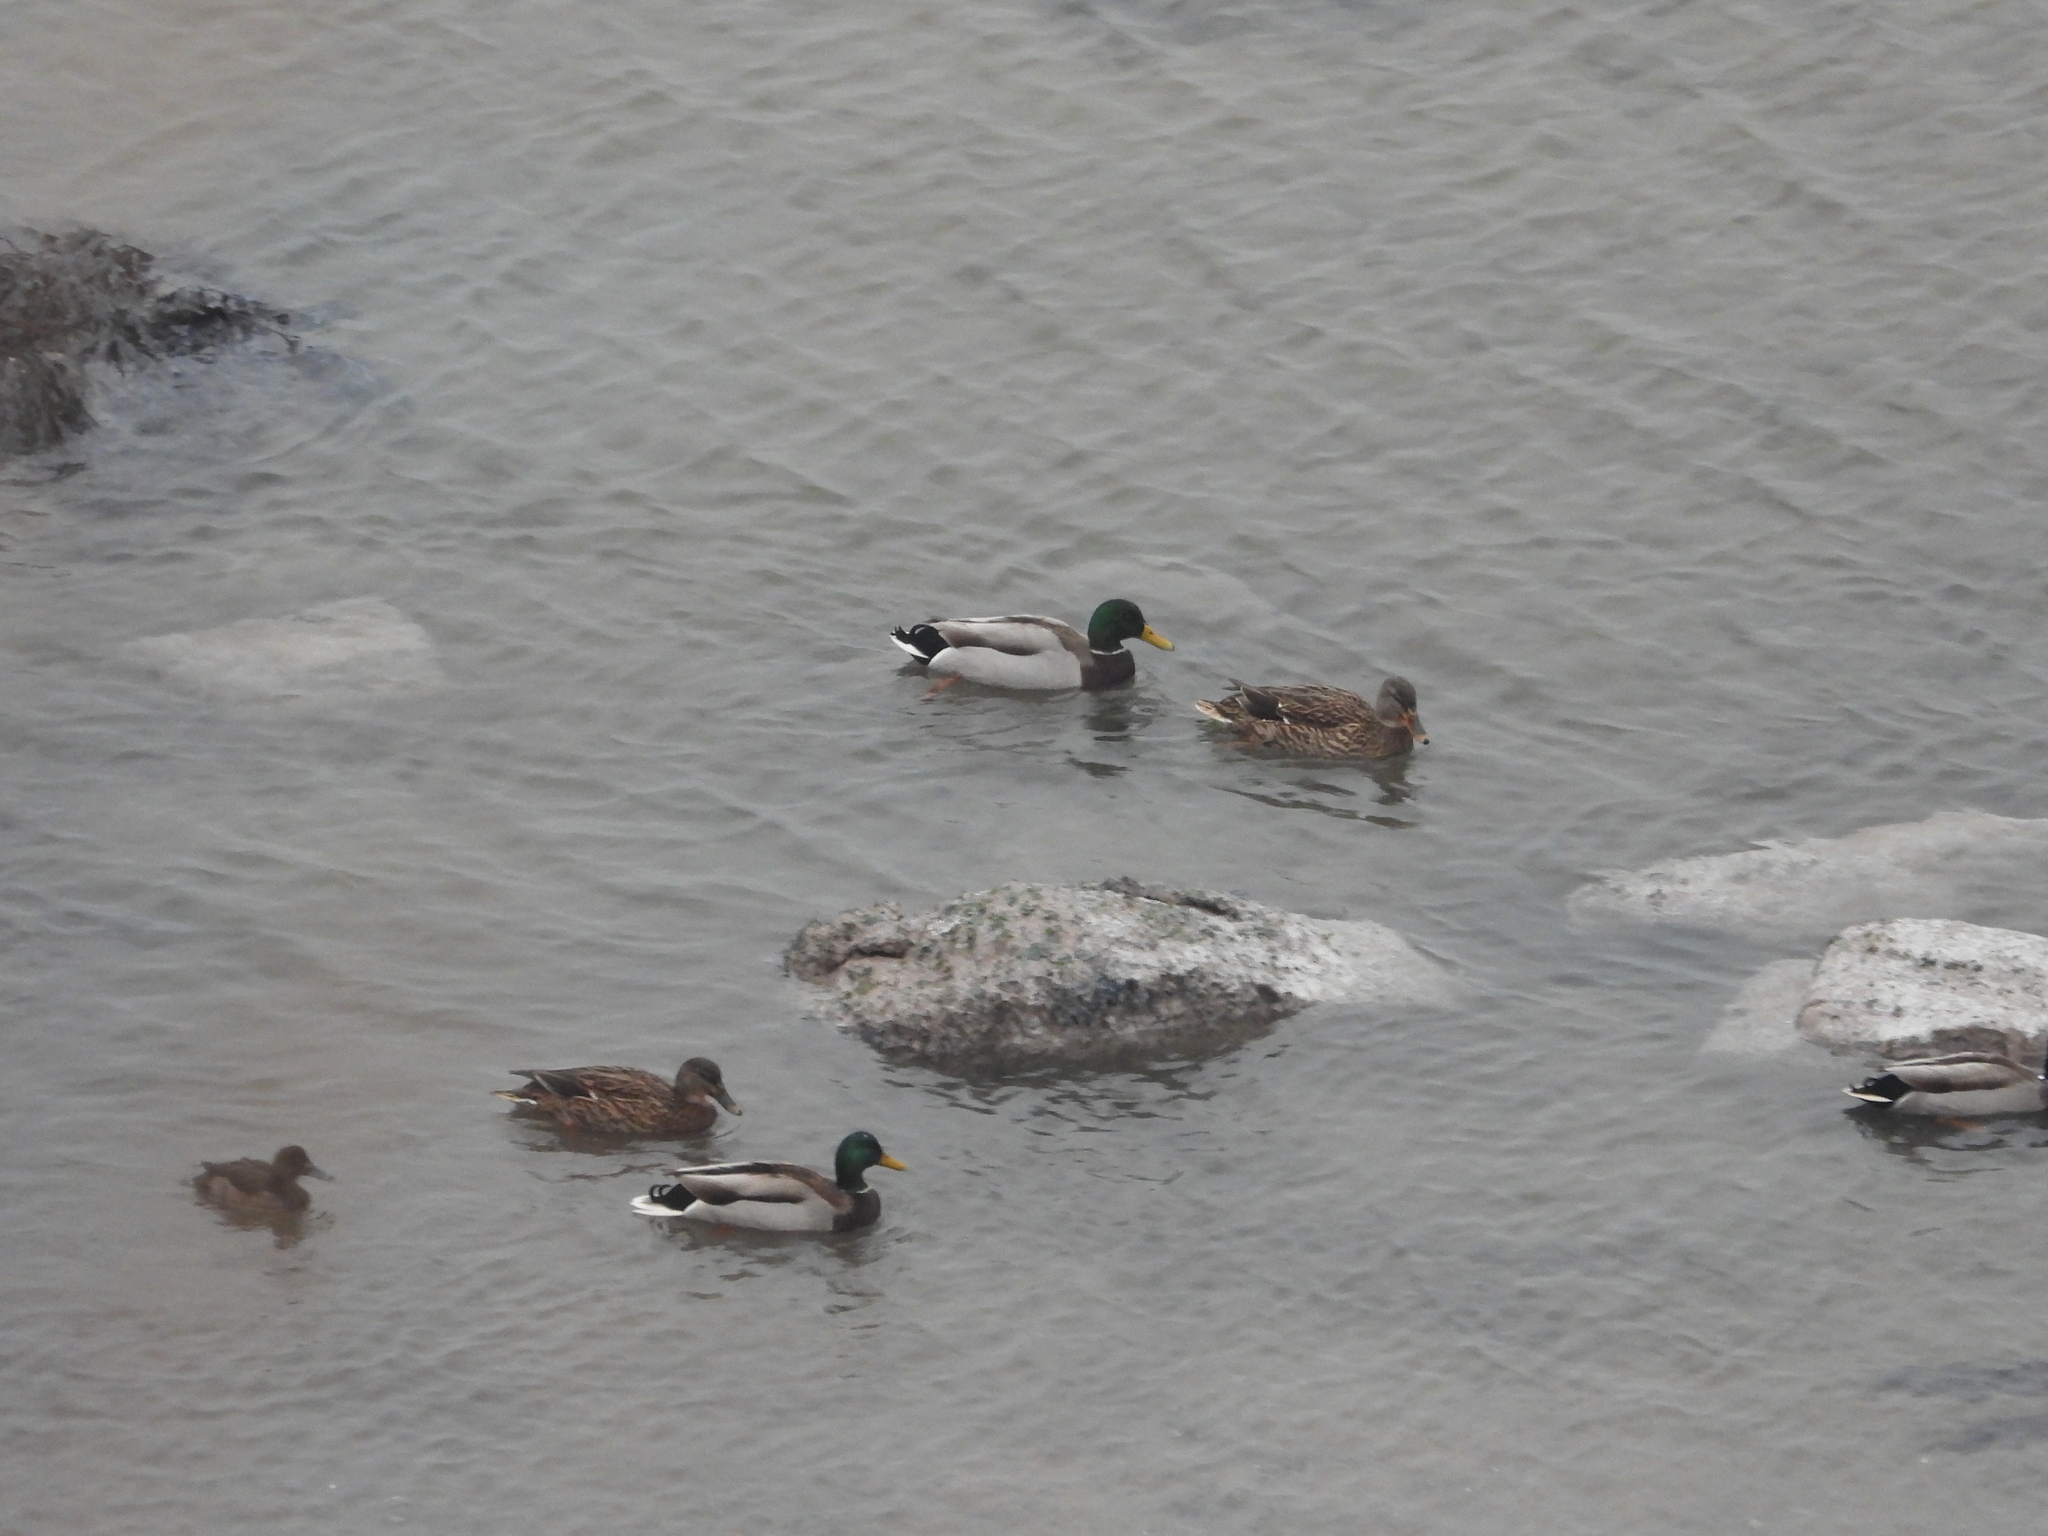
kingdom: Animalia
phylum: Chordata
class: Aves
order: Anseriformes
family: Anatidae
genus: Anas
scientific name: Anas platyrhynchos
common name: Mallard
